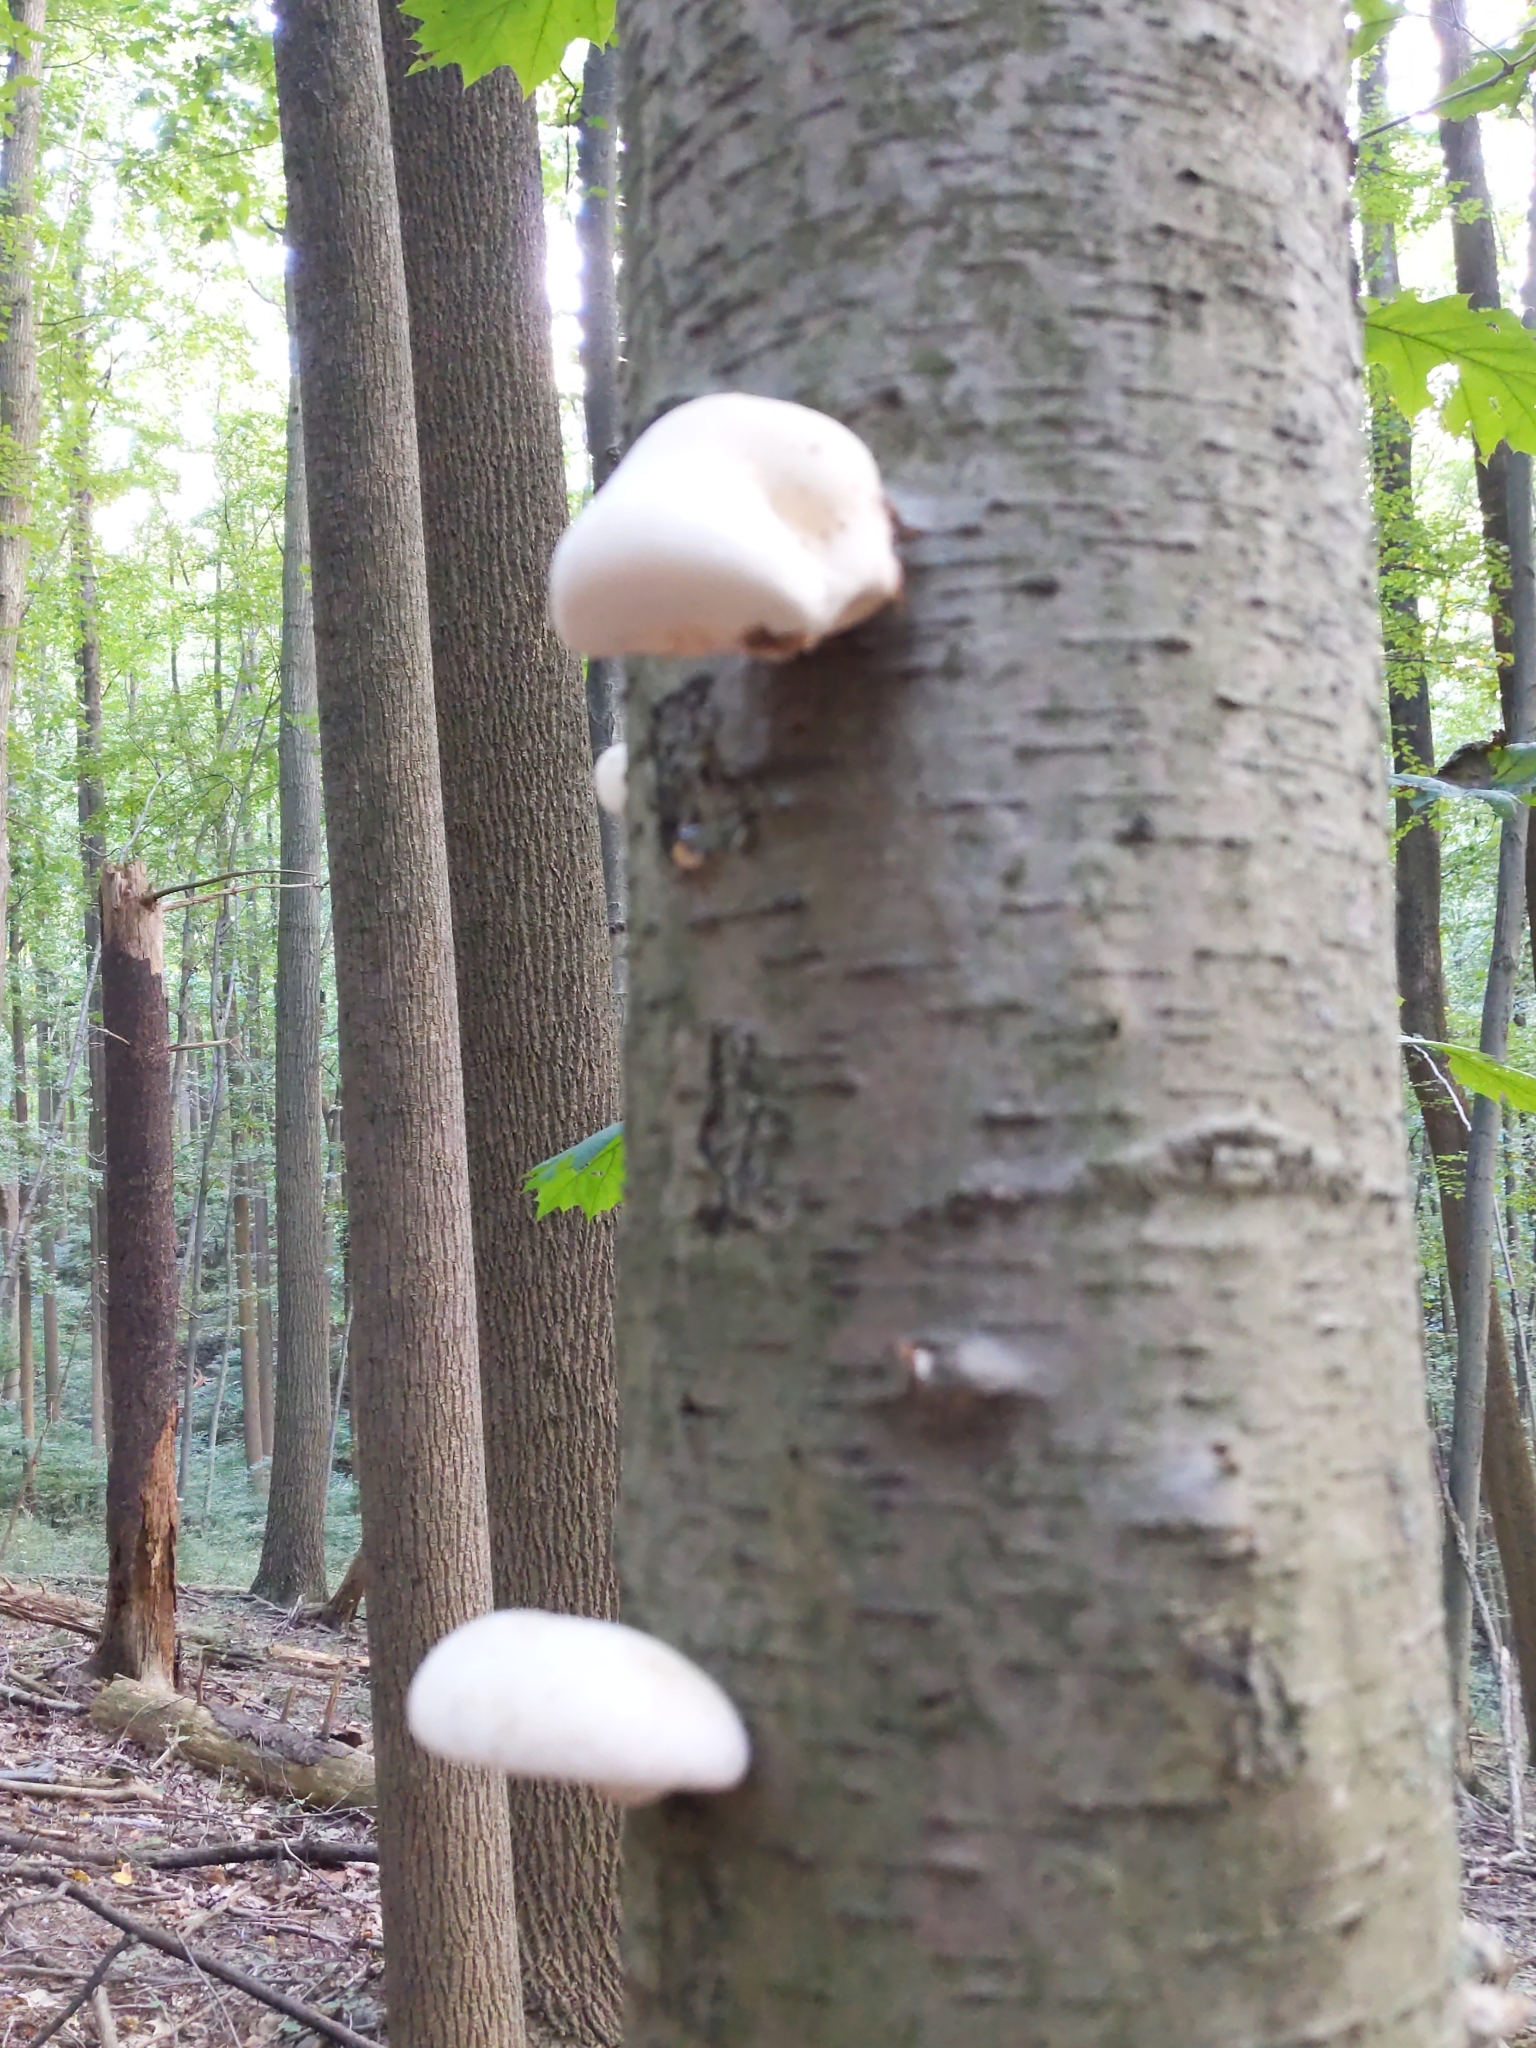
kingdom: Fungi
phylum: Basidiomycota
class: Agaricomycetes
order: Polyporales
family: Fomitopsidaceae
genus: Fomitopsis
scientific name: Fomitopsis betulina
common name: Birch polypore
